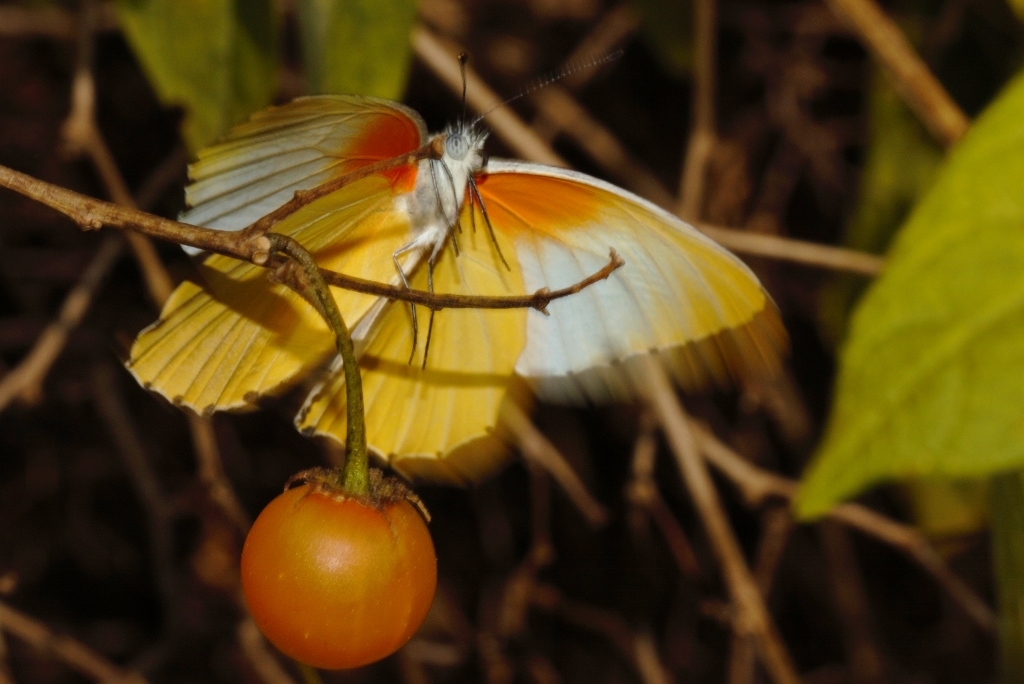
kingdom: Animalia
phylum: Arthropoda
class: Insecta
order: Lepidoptera
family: Pieridae
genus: Mylothris
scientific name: Mylothris agathina
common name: Eastern dotted border
